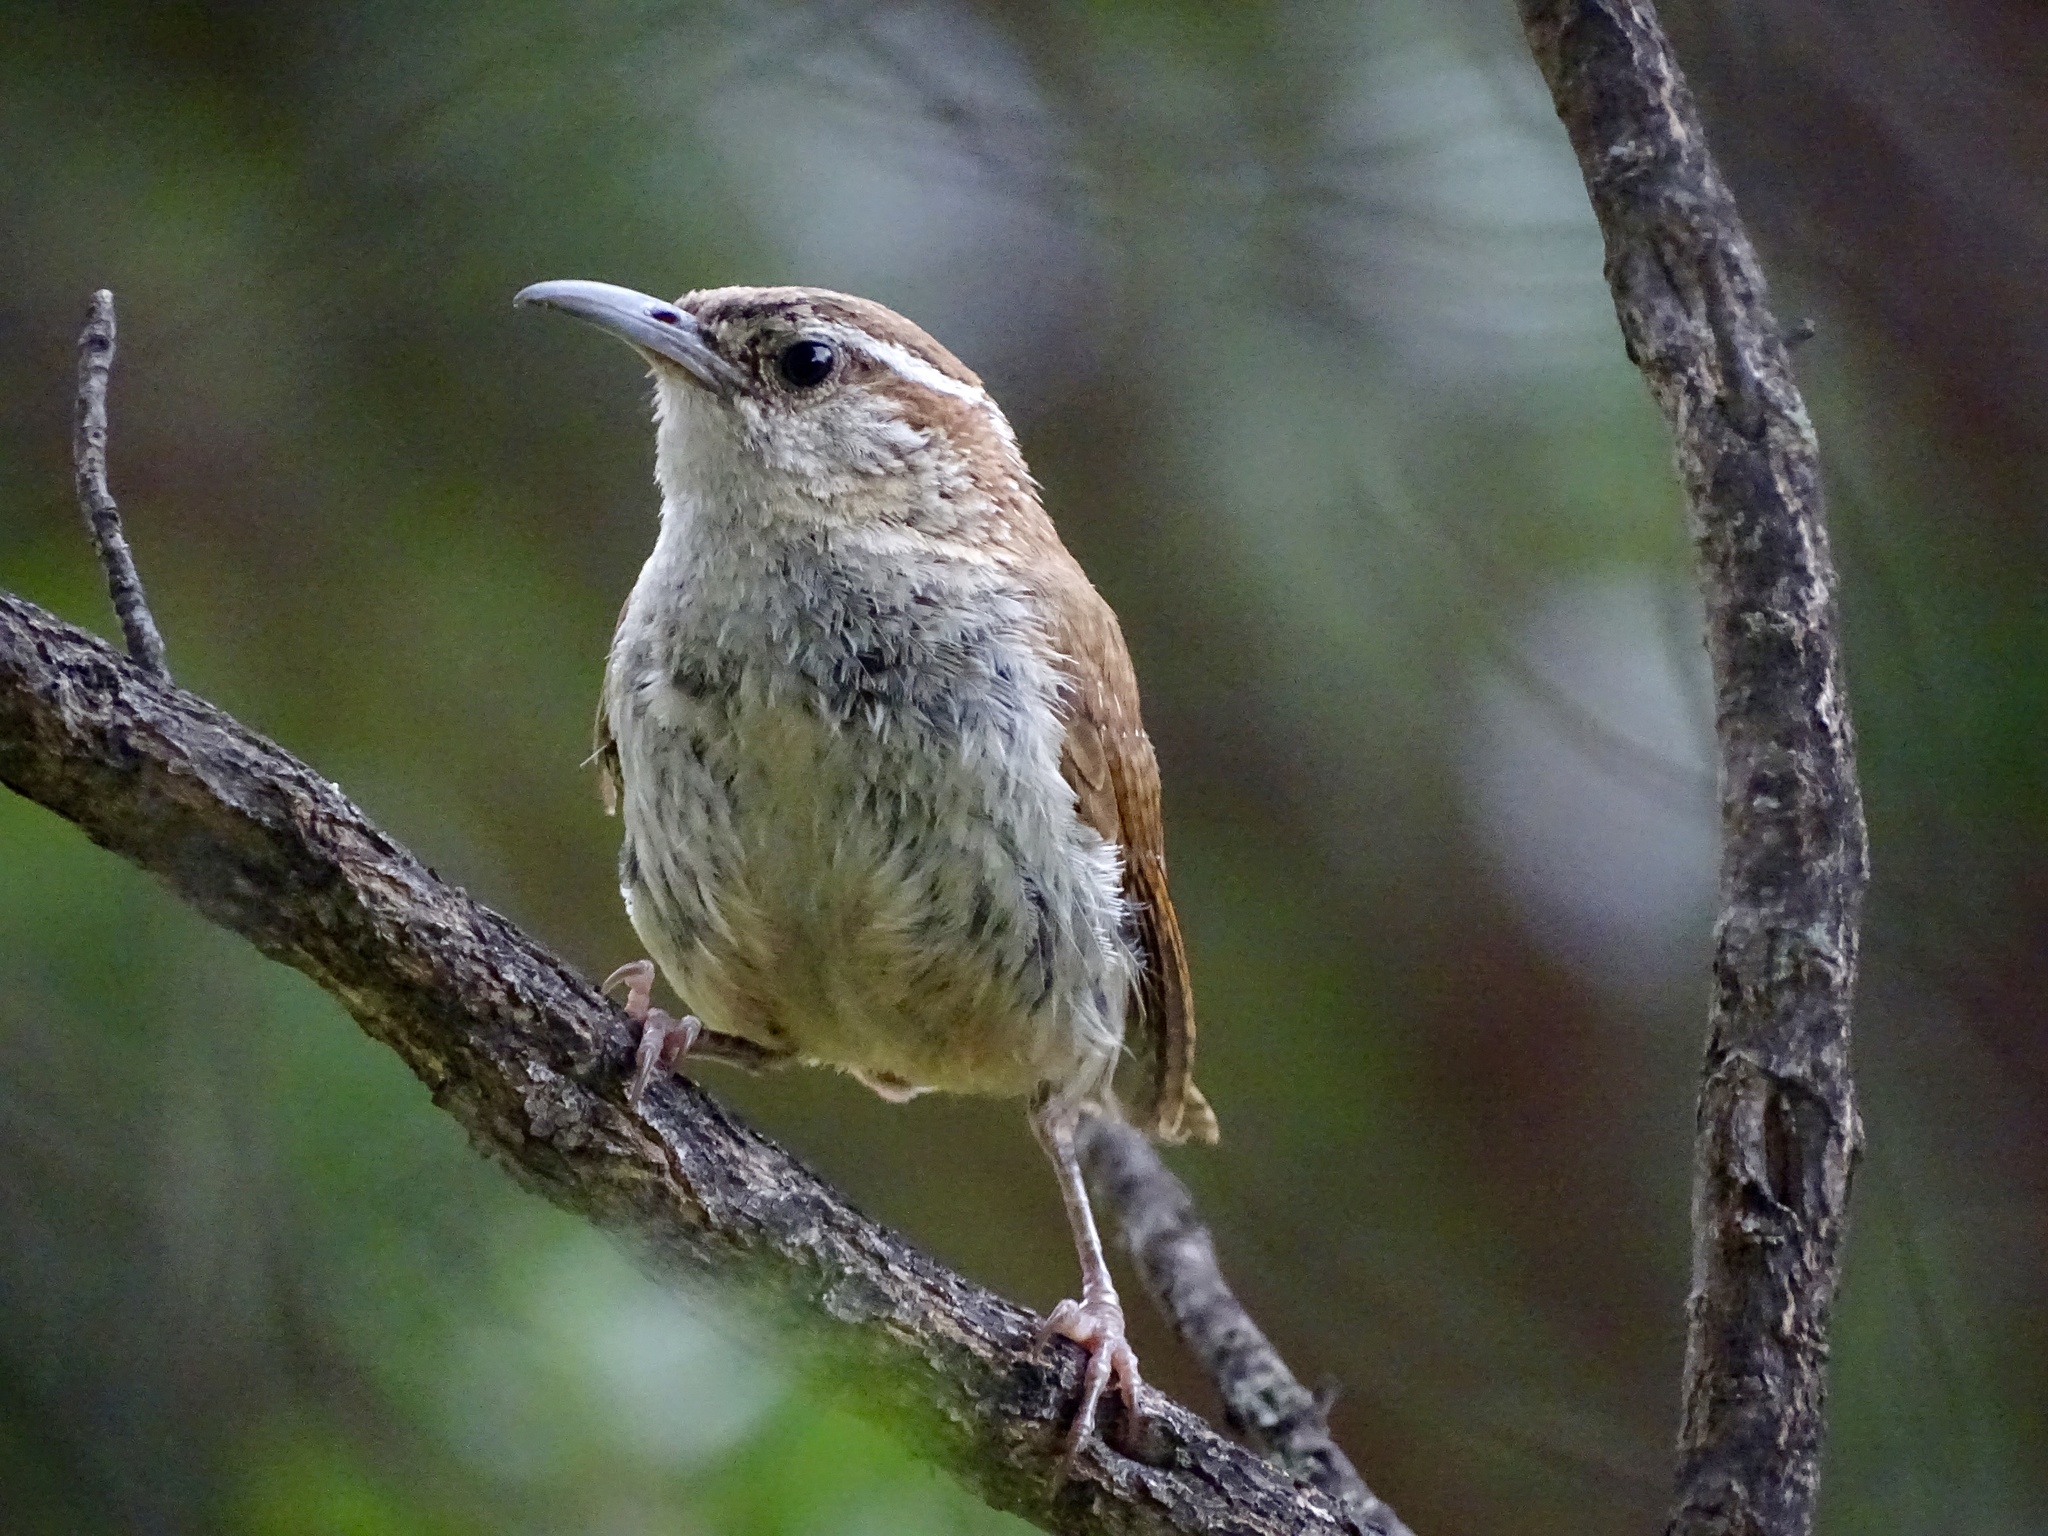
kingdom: Animalia
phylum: Chordata
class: Aves
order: Passeriformes
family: Troglodytidae
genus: Thryothorus
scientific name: Thryothorus ludovicianus
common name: Carolina wren
